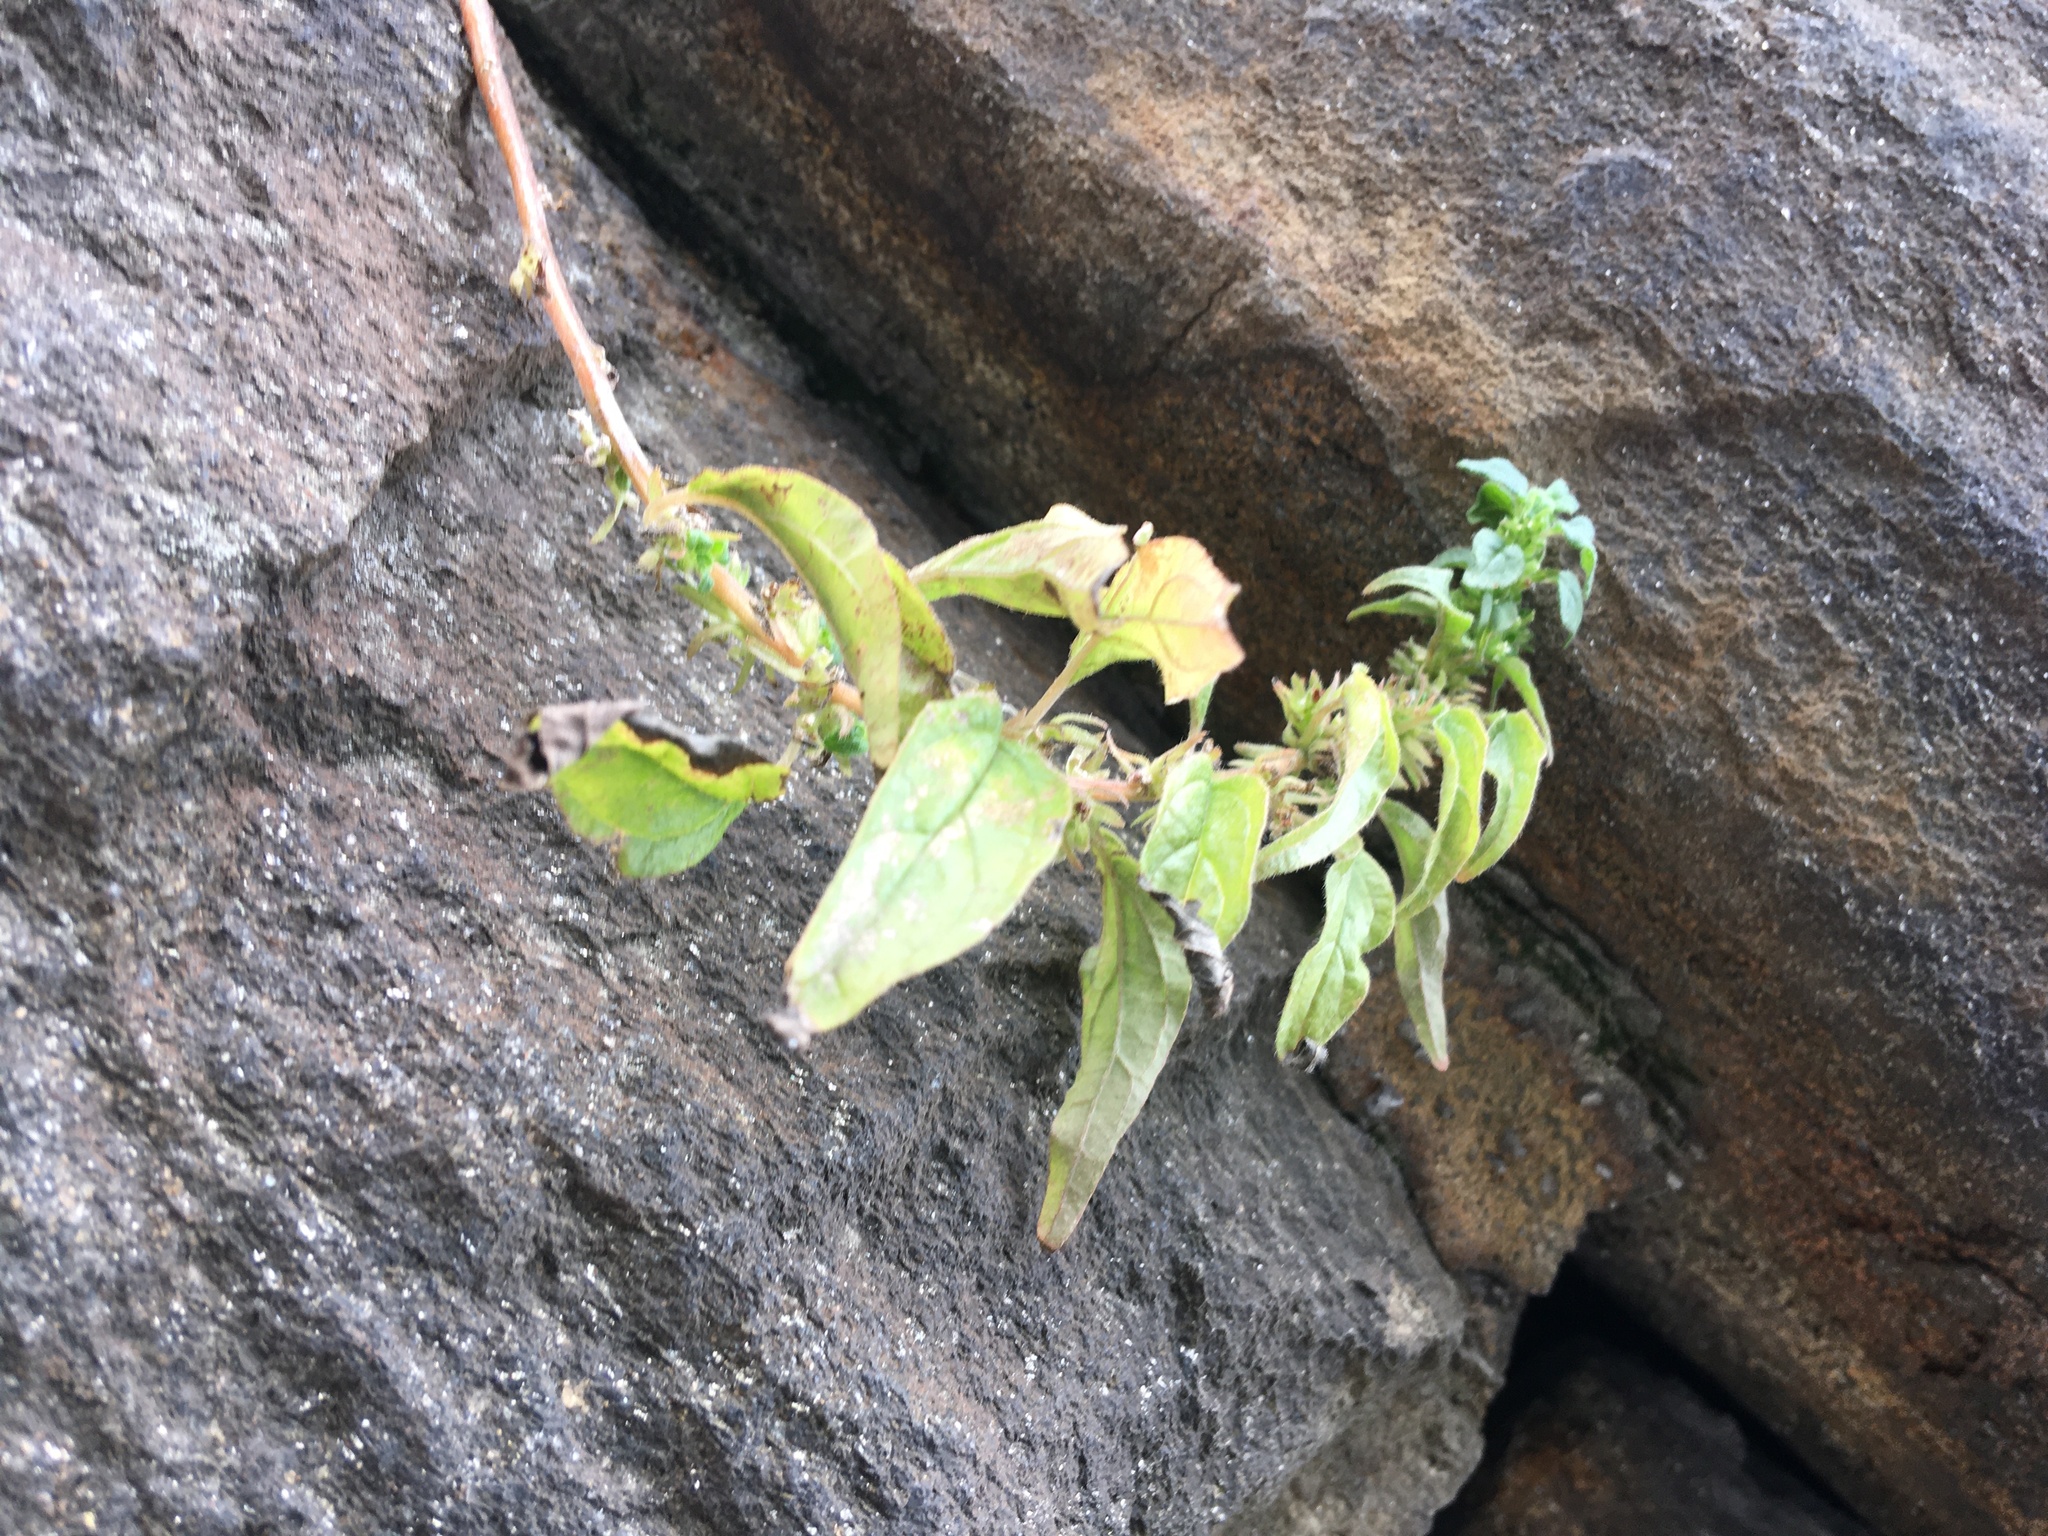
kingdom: Plantae
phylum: Tracheophyta
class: Magnoliopsida
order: Rosales
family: Urticaceae
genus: Parietaria
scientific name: Parietaria pensylvanica
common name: Pennsylvania pellitory
